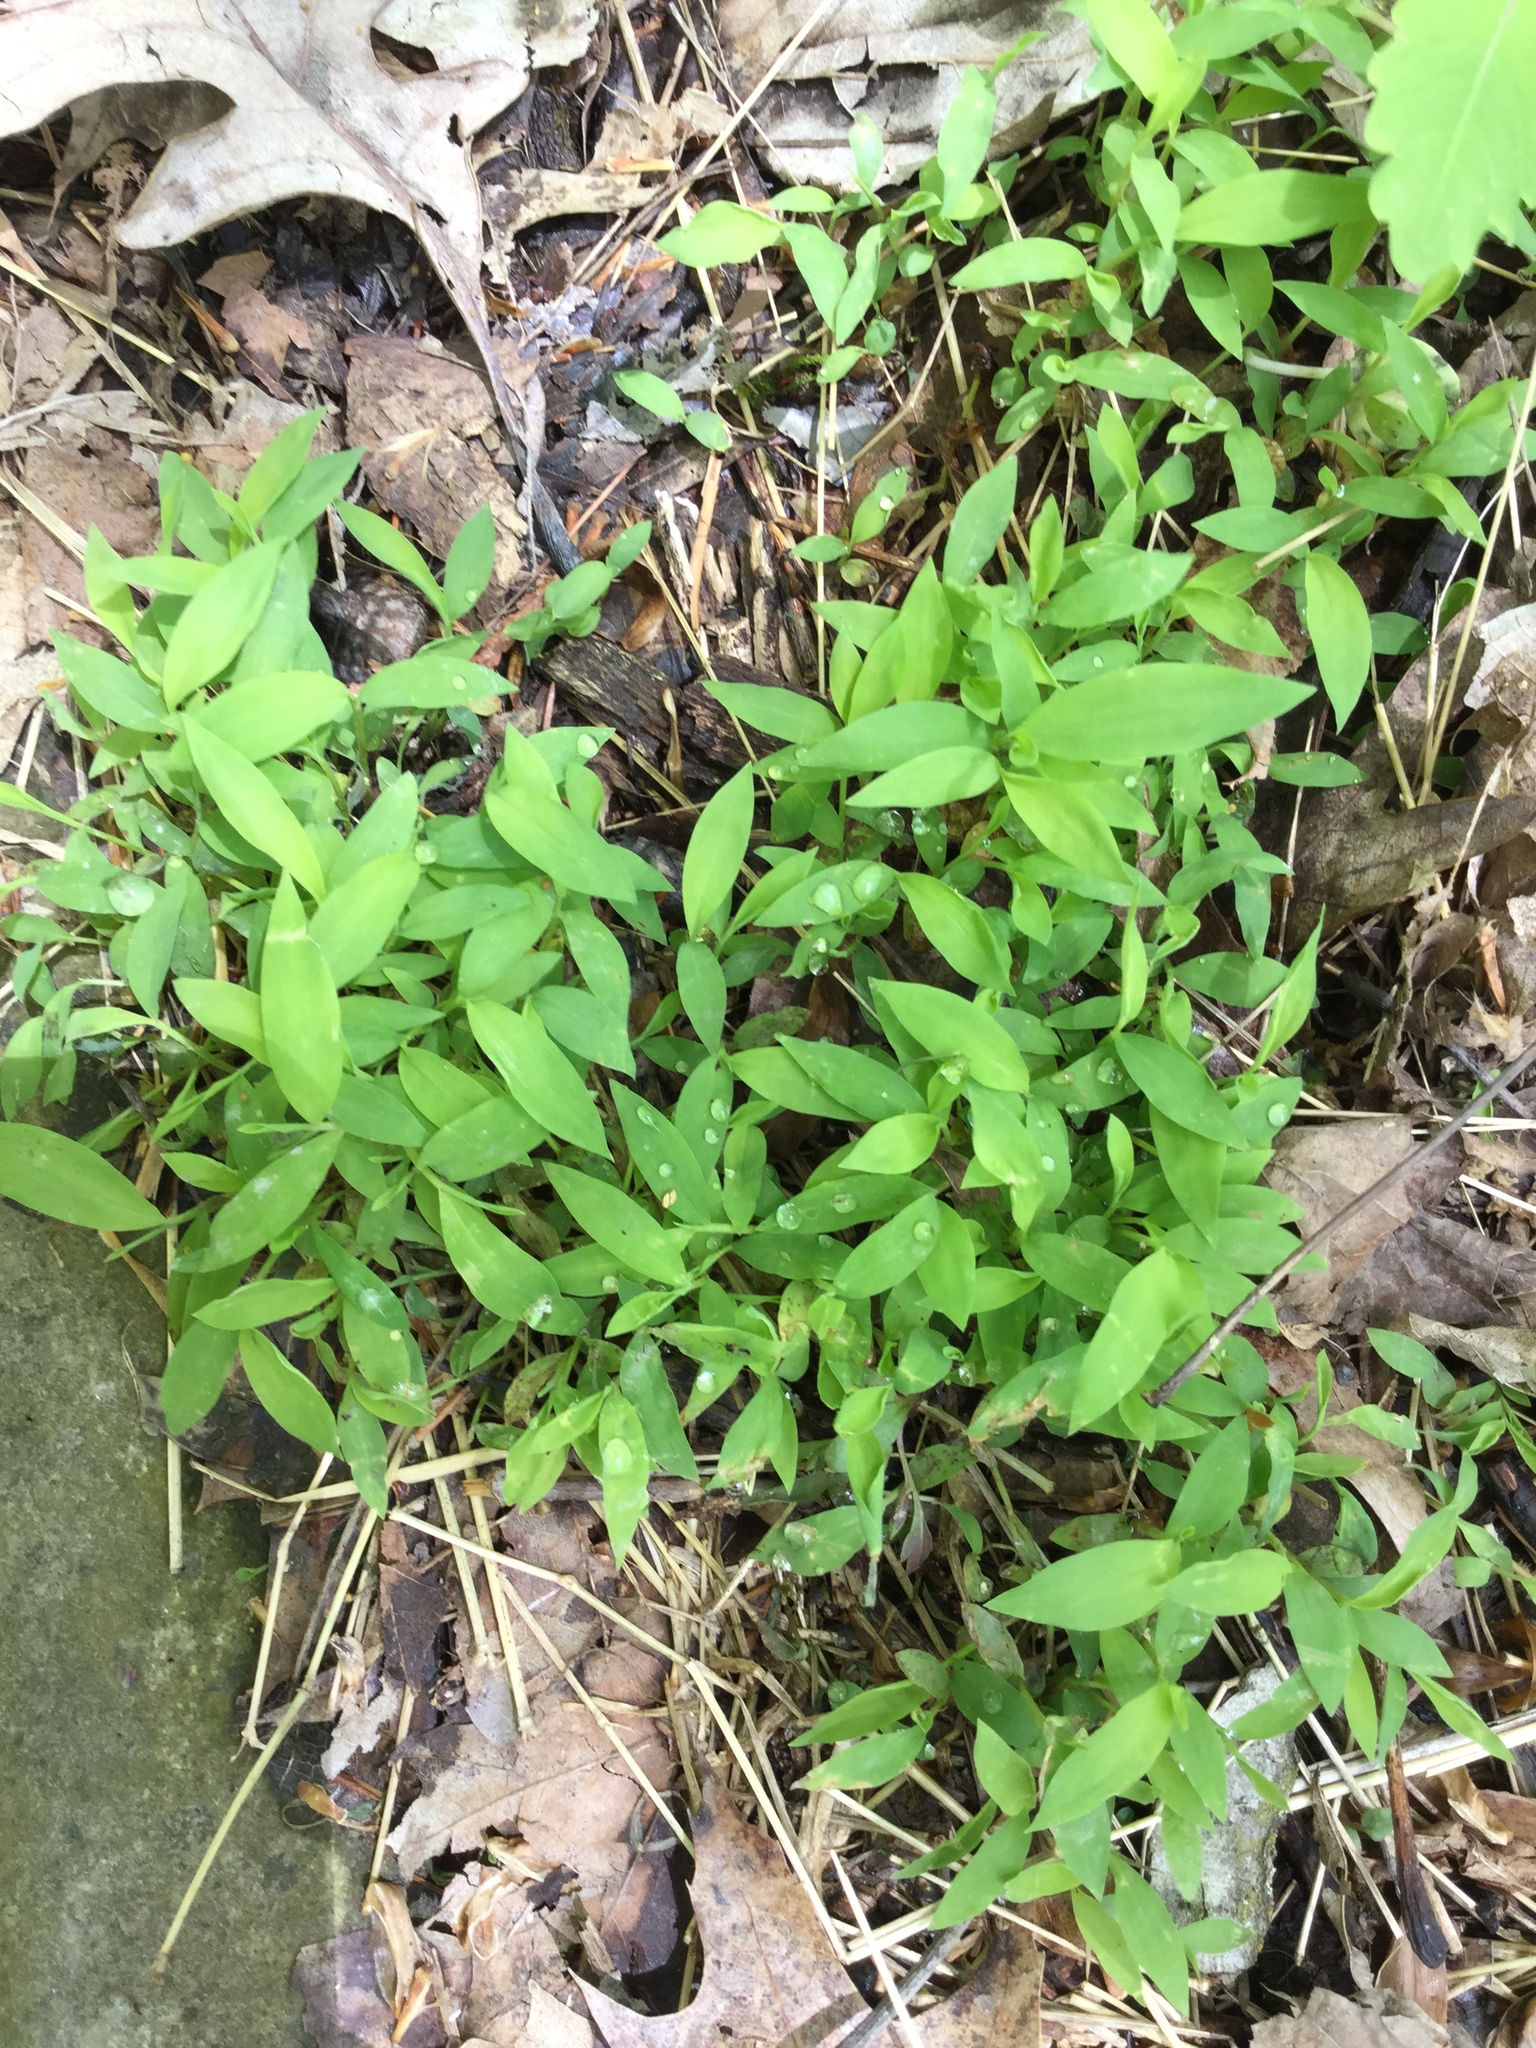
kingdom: Plantae
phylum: Tracheophyta
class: Liliopsida
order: Poales
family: Poaceae
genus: Microstegium
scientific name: Microstegium vimineum
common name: Japanese stiltgrass
